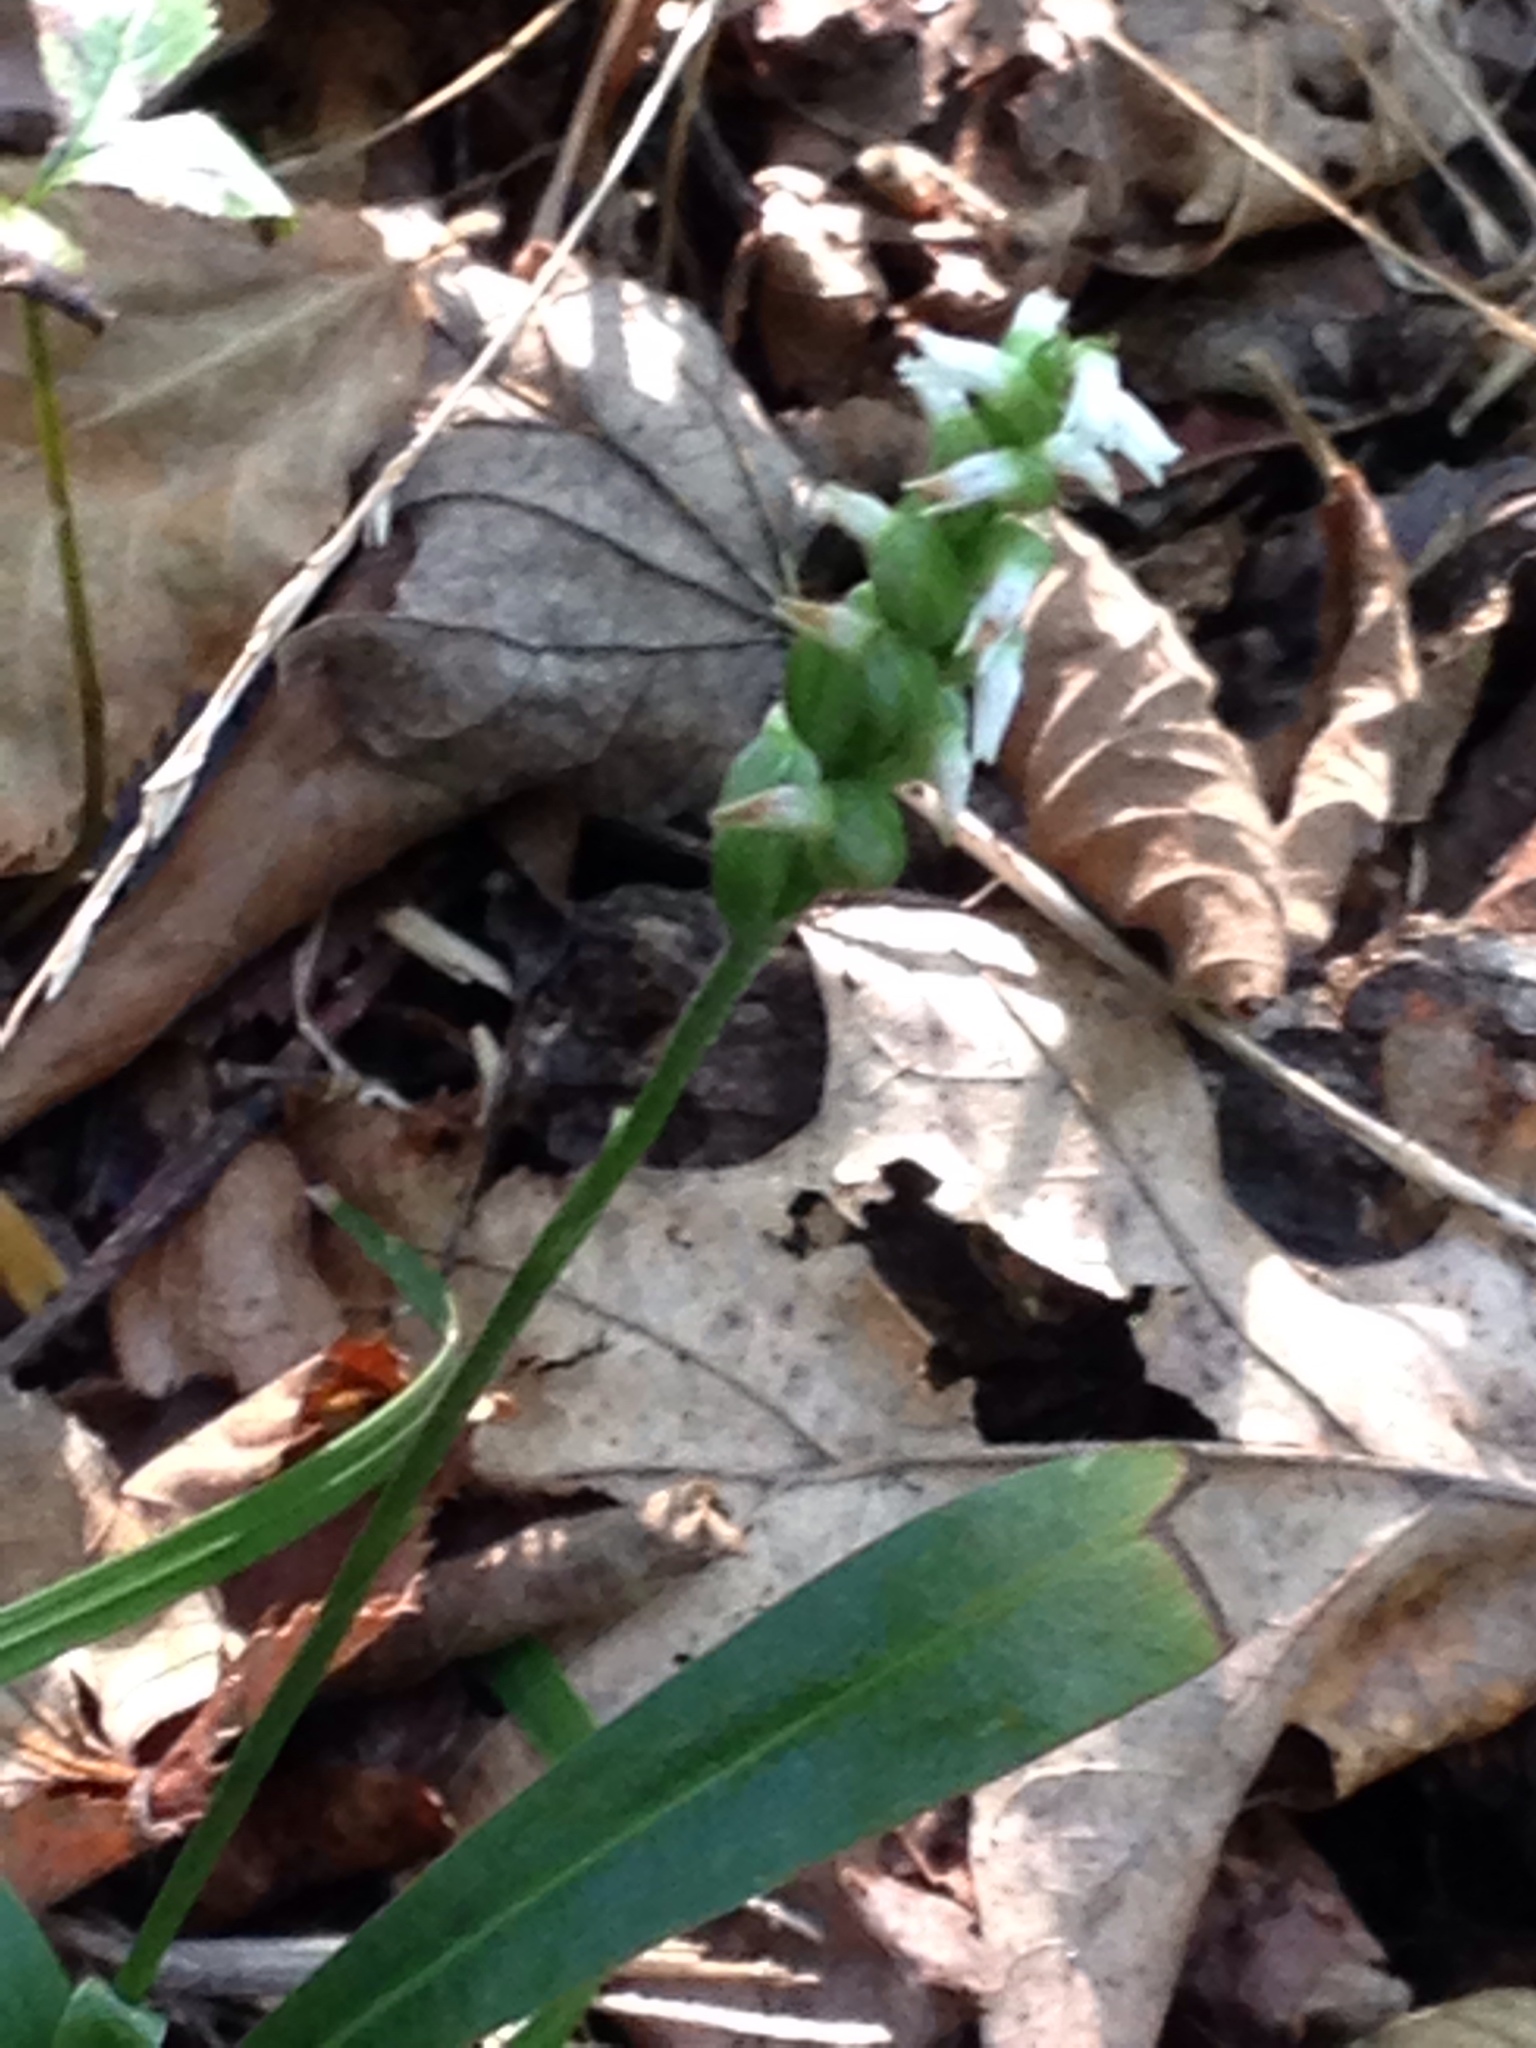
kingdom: Plantae
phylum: Tracheophyta
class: Liliopsida
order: Asparagales
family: Orchidaceae
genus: Spiranthes
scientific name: Spiranthes ovalis
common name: October ladies'-tresses
